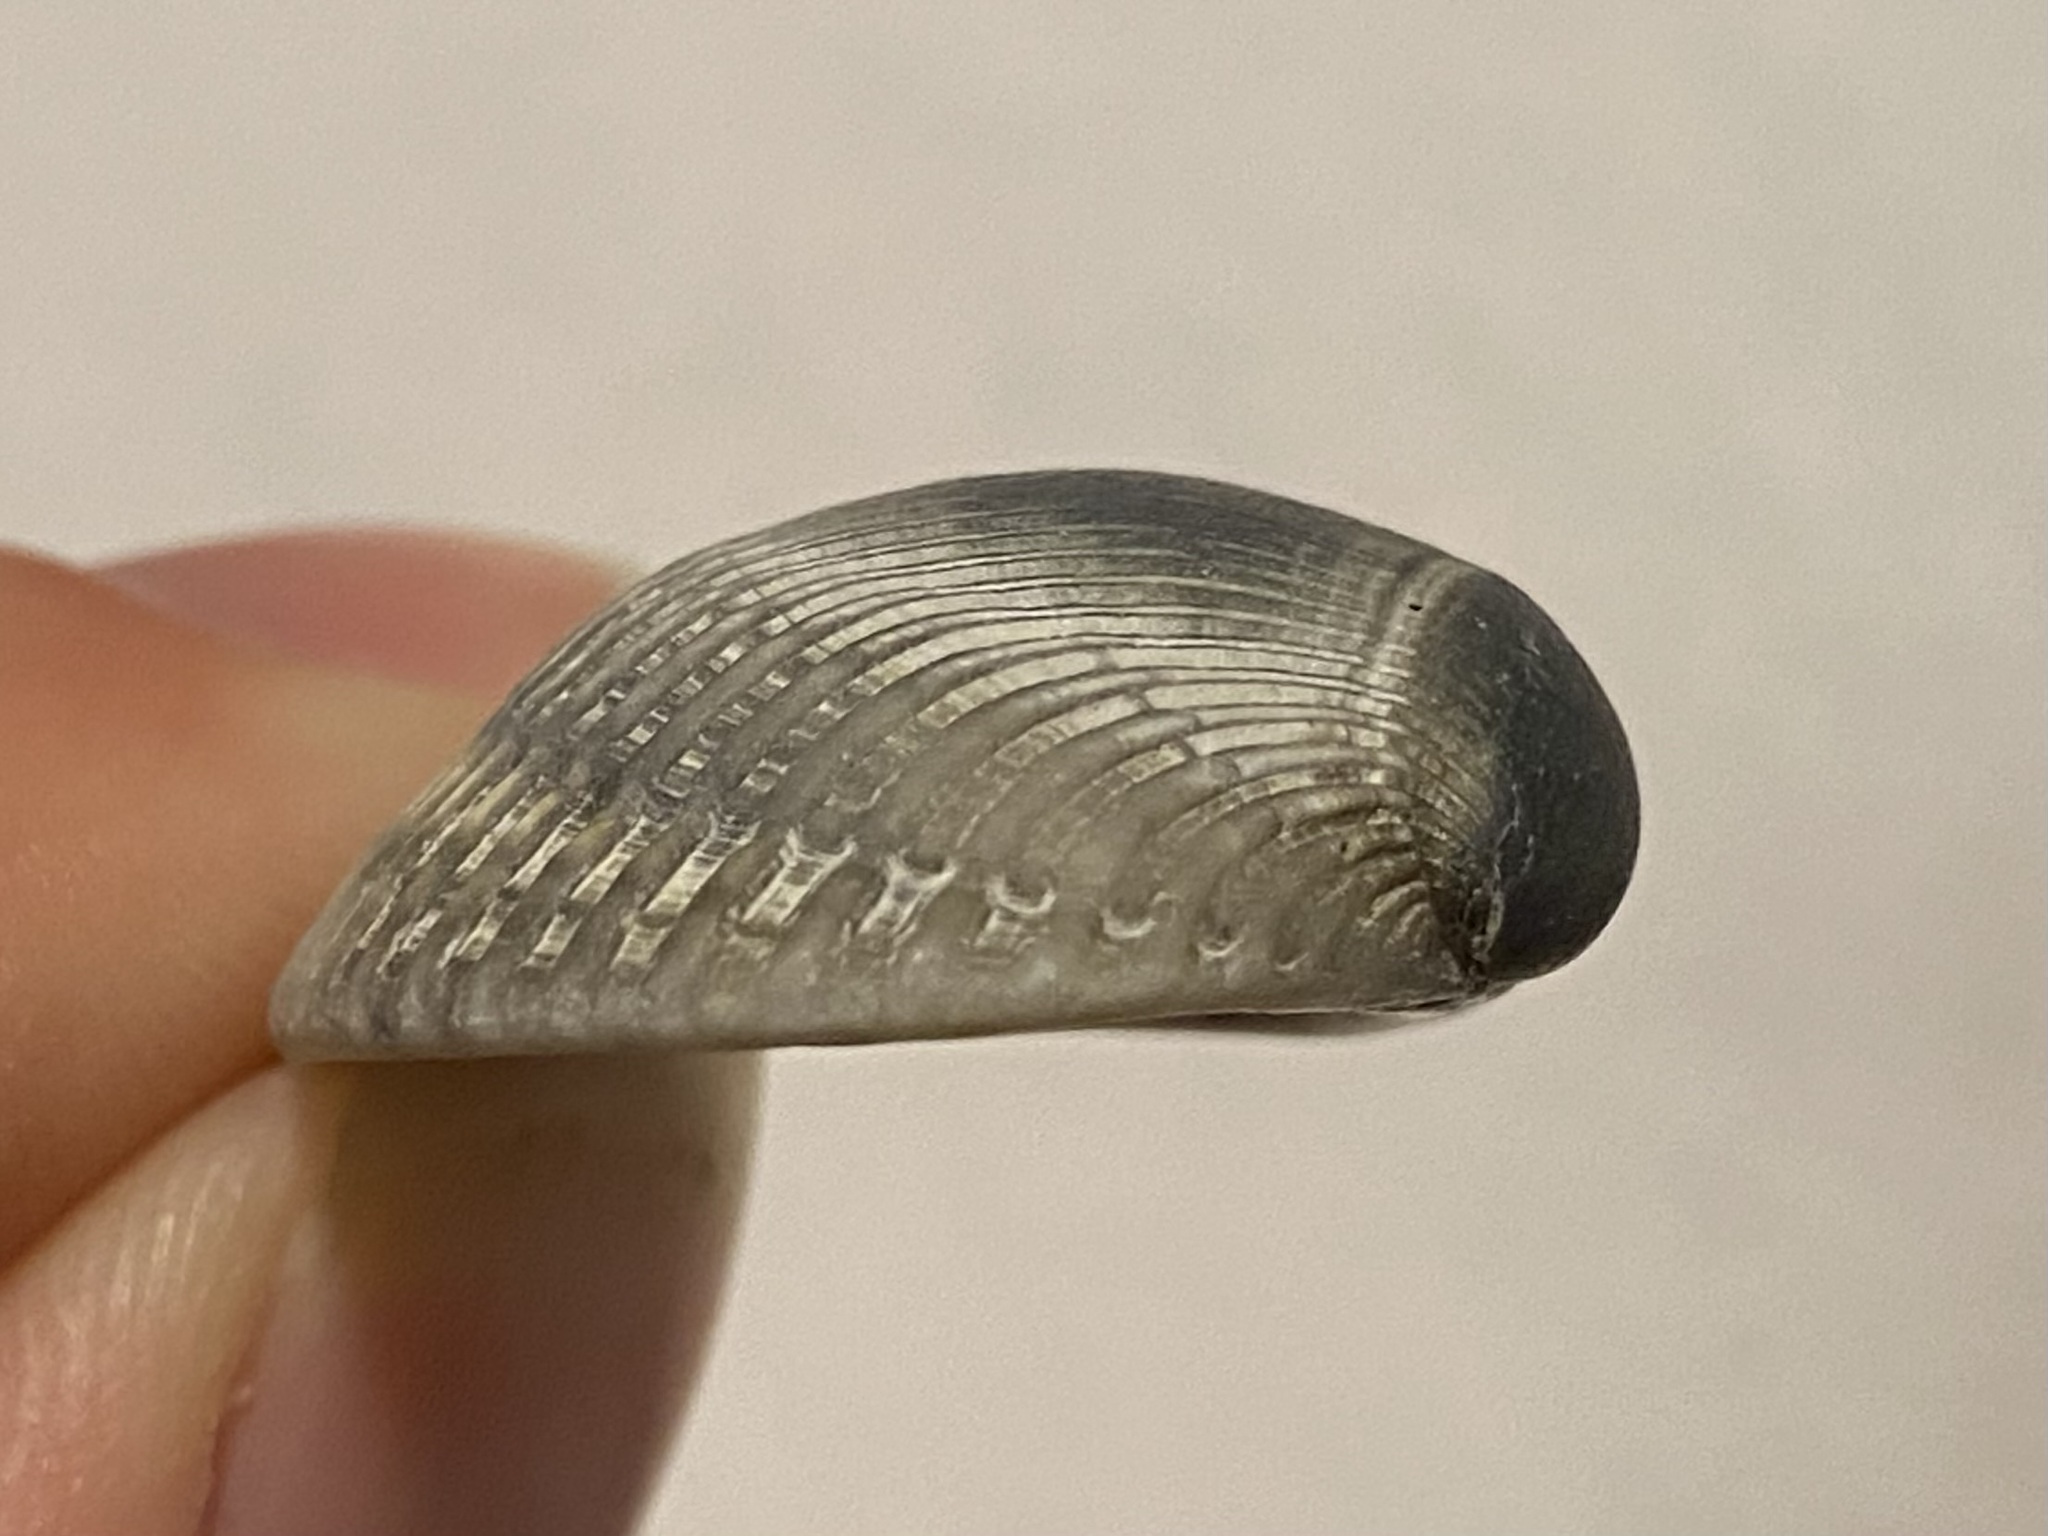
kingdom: Animalia
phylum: Mollusca
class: Bivalvia
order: Arcida
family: Arcidae
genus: Lunarca
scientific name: Lunarca ovalis
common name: Blood ark
